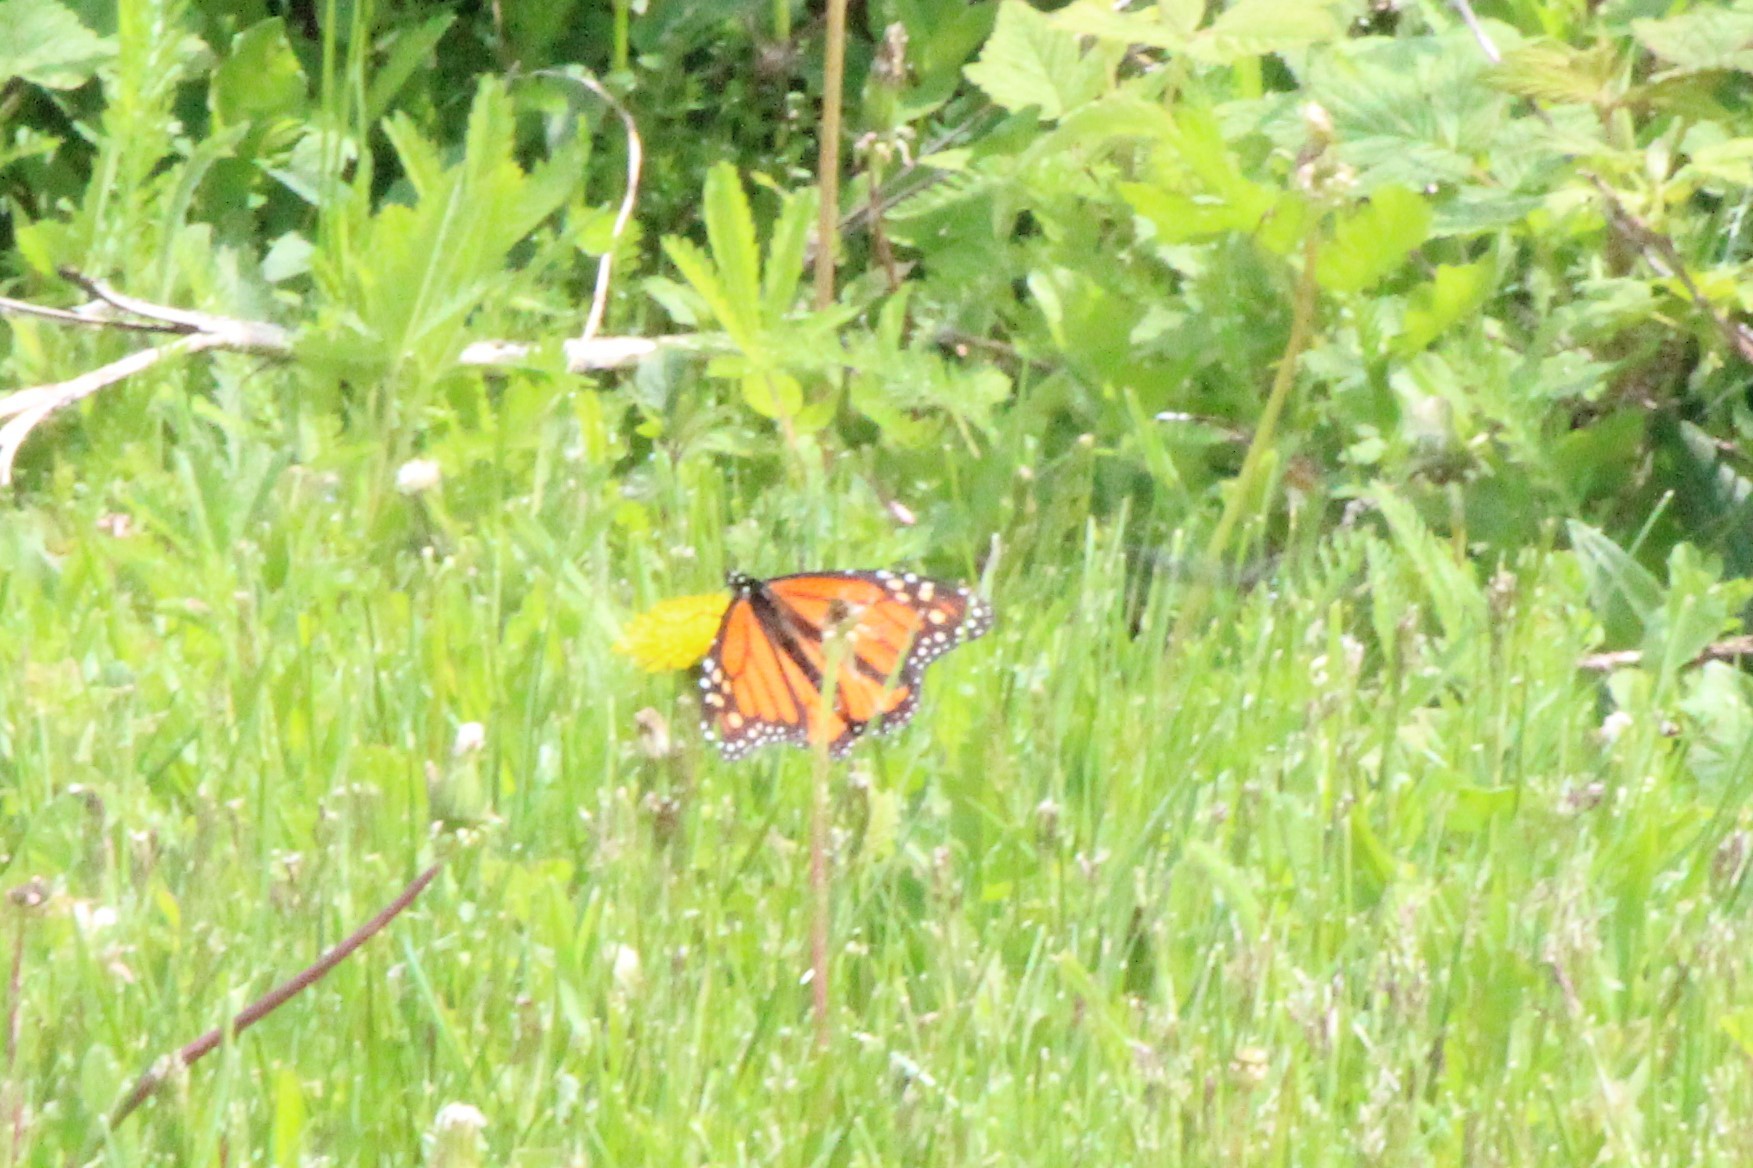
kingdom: Animalia
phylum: Arthropoda
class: Insecta
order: Lepidoptera
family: Nymphalidae
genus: Danaus
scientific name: Danaus plexippus
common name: Monarch
